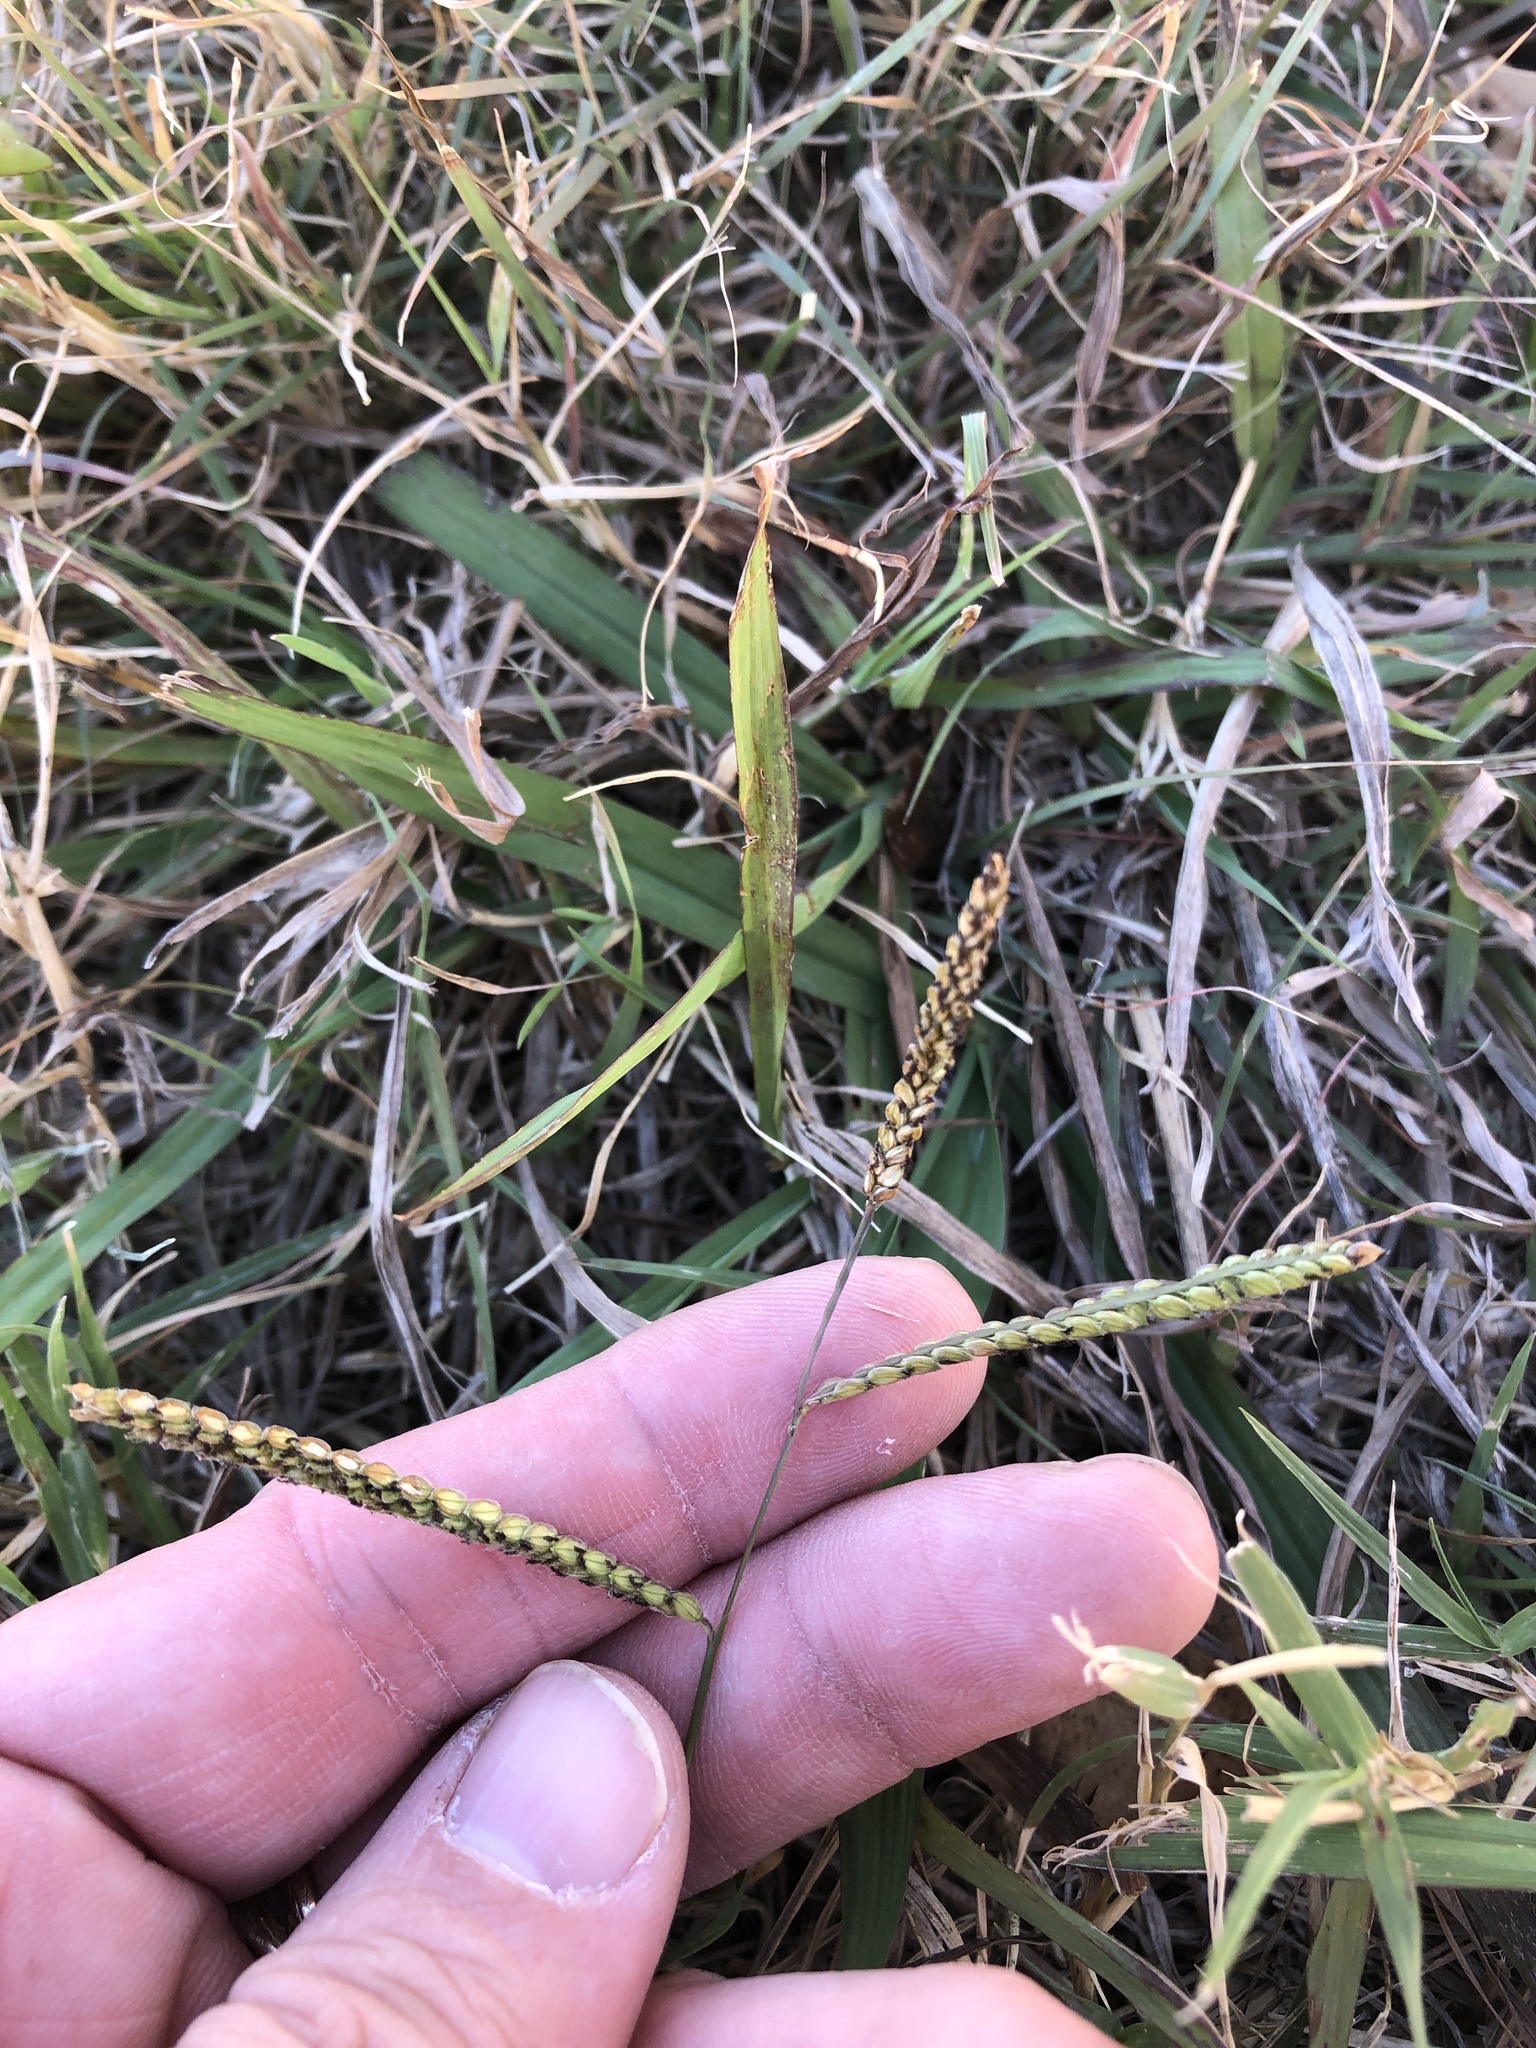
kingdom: Plantae
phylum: Tracheophyta
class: Liliopsida
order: Poales
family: Poaceae
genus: Paspalum
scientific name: Paspalum dilatatum
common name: Dallisgrass
